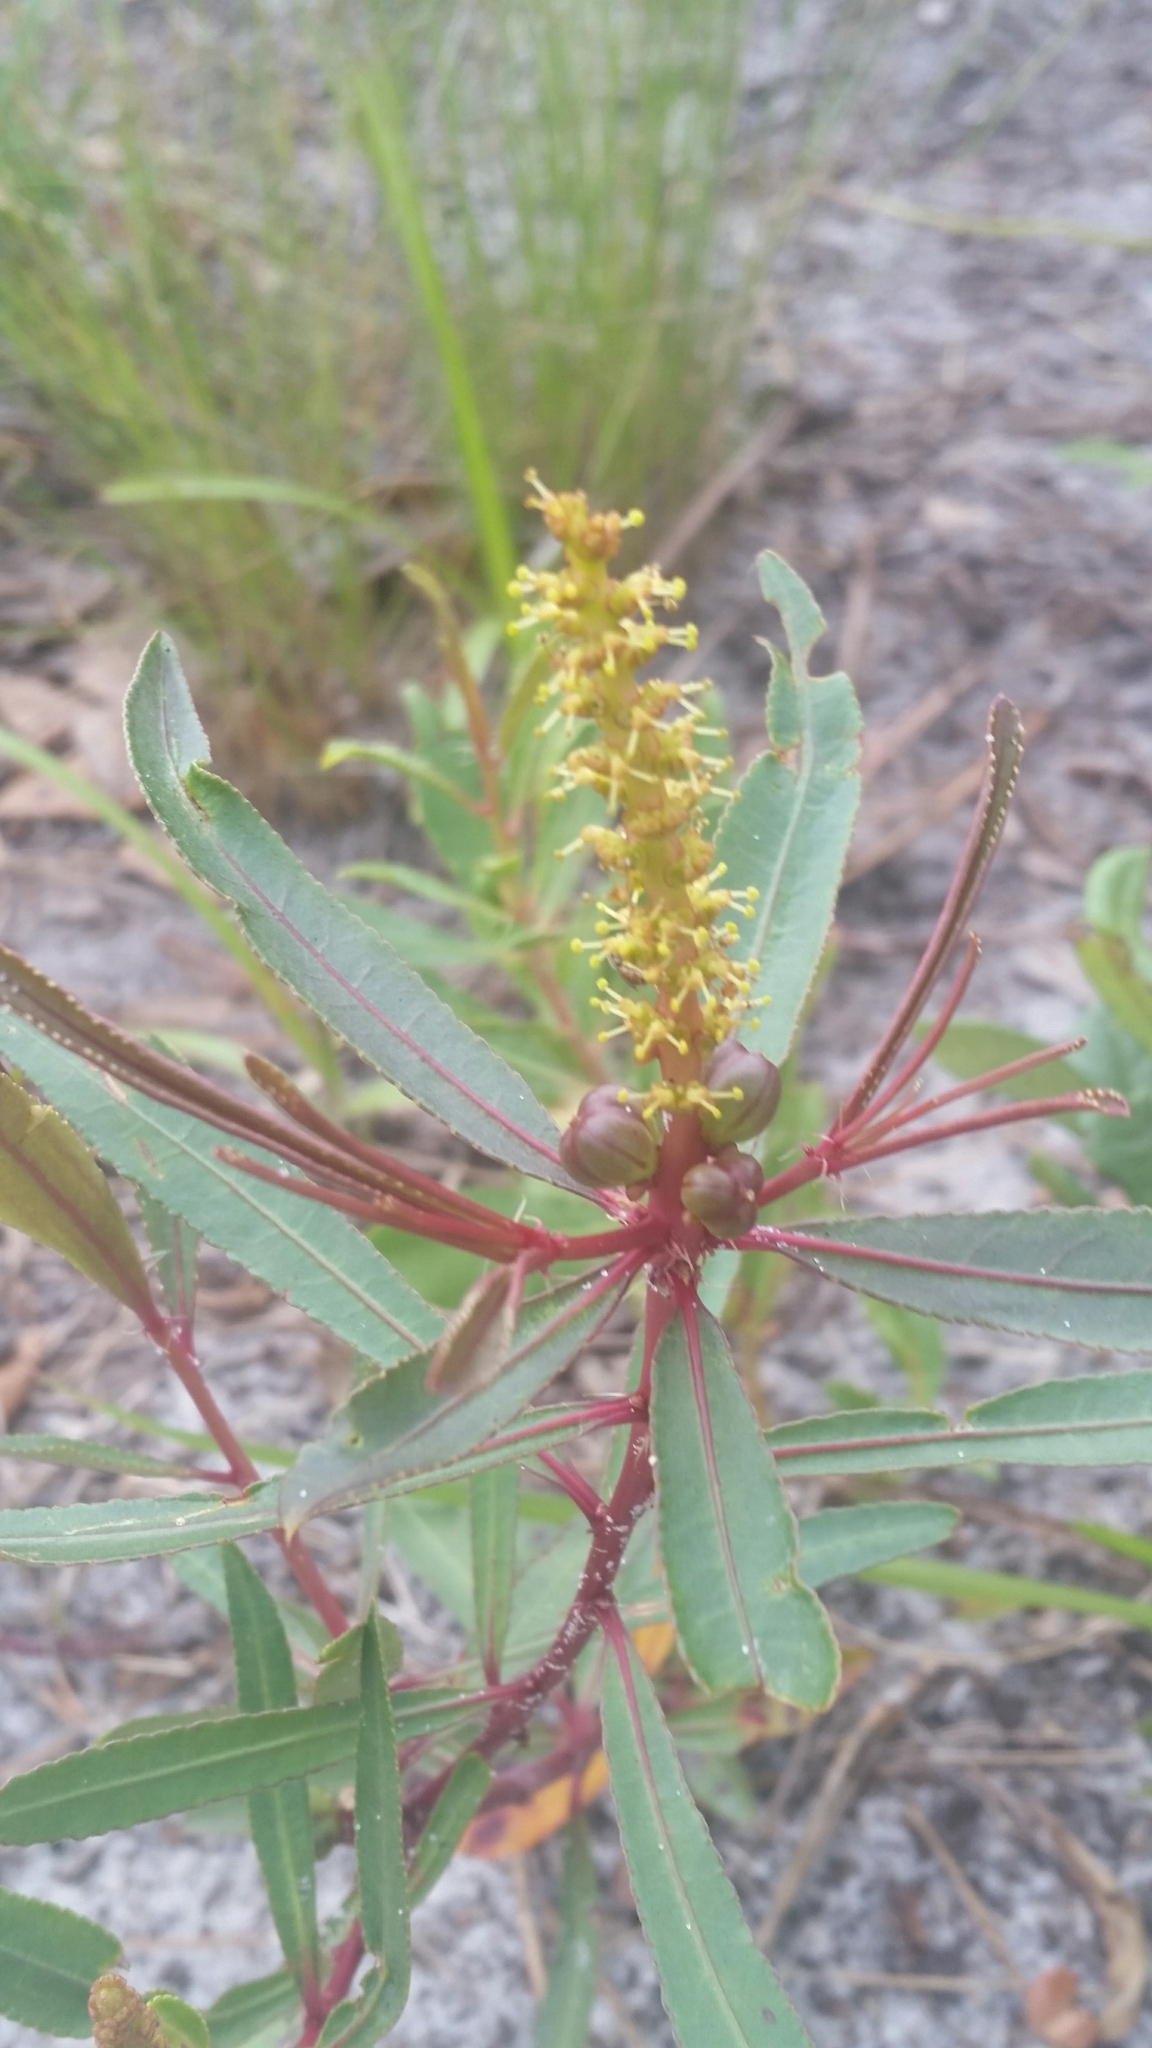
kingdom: Plantae
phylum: Tracheophyta
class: Magnoliopsida
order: Malpighiales
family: Euphorbiaceae
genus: Stillingia
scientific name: Stillingia sylvatica
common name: Queen's-delight
